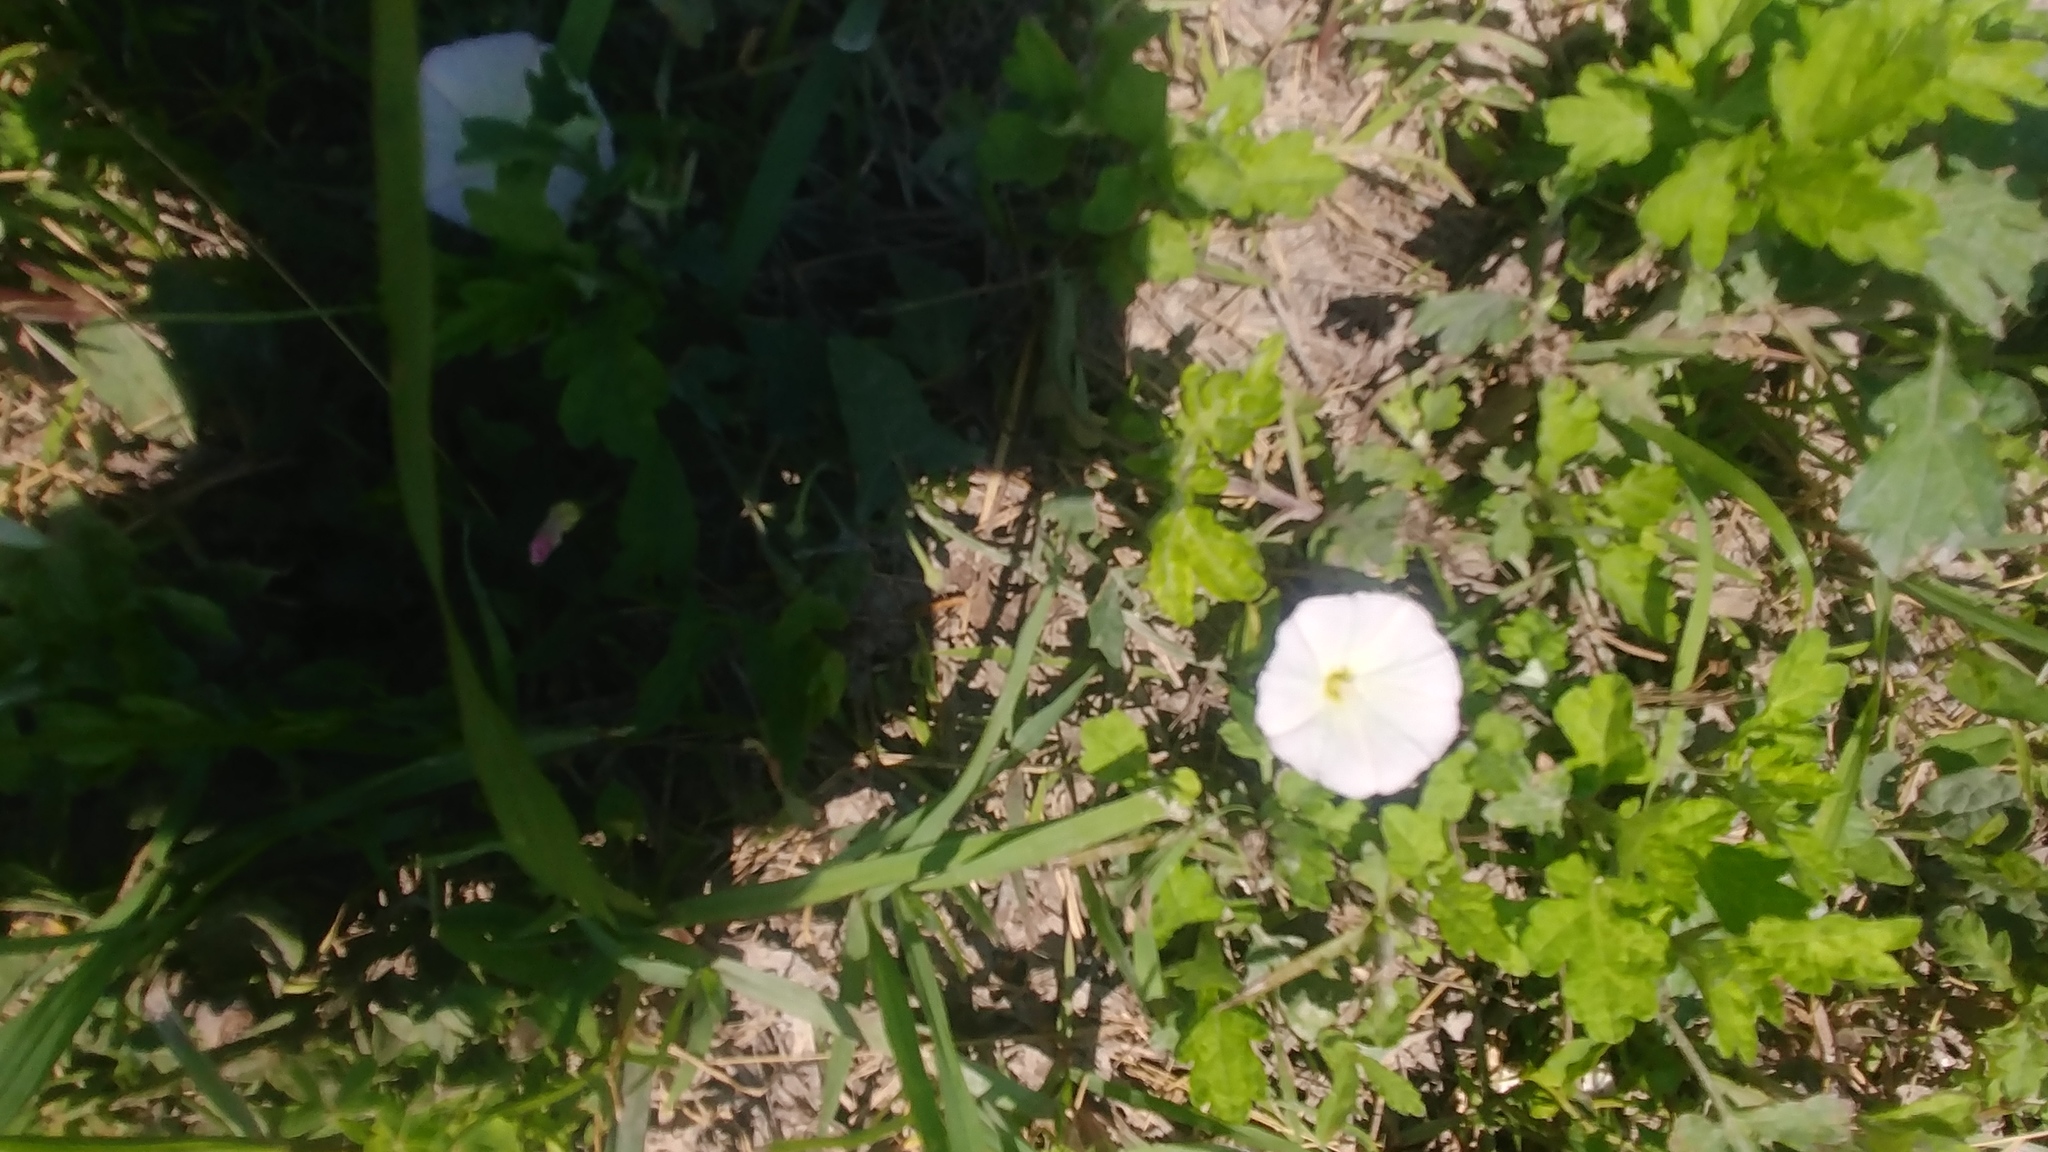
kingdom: Plantae
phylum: Tracheophyta
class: Magnoliopsida
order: Solanales
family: Convolvulaceae
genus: Convolvulus
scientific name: Convolvulus arvensis
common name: Field bindweed
